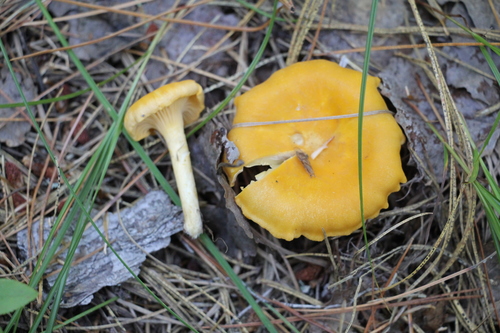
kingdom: Fungi
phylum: Basidiomycota
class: Agaricomycetes
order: Cantharellales
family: Hydnaceae
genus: Cantharellus
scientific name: Cantharellus cibarius
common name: Chanterelle
